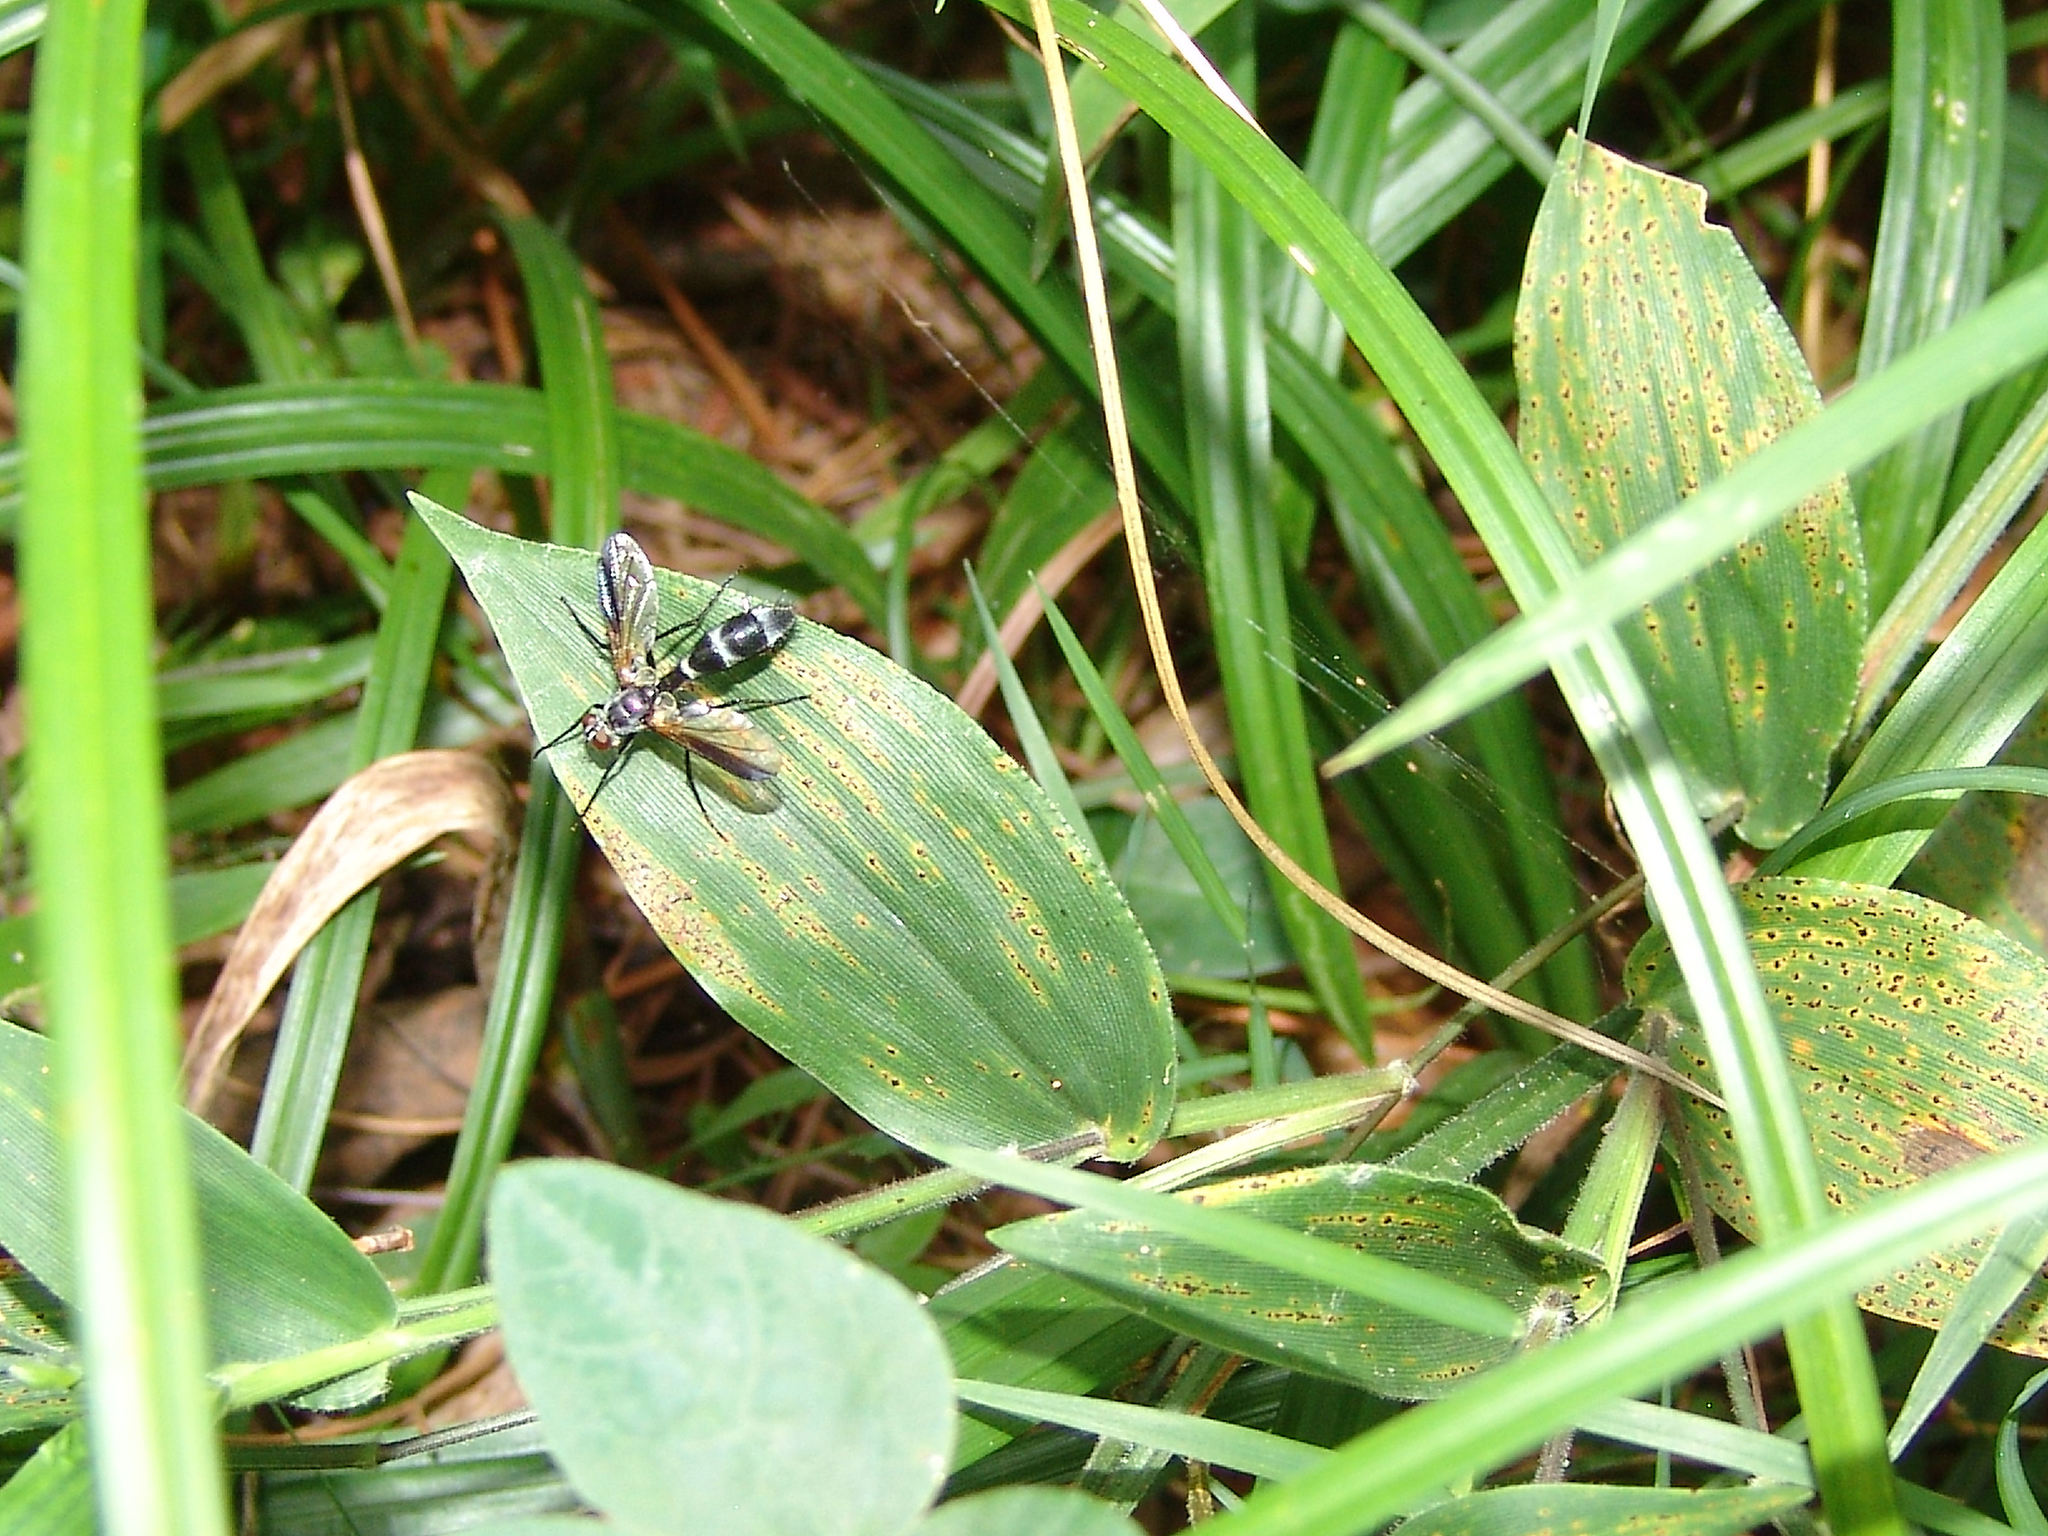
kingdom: Animalia
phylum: Arthropoda
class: Insecta
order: Diptera
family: Tachinidae
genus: Cordyligaster
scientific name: Cordyligaster septentrionalis
